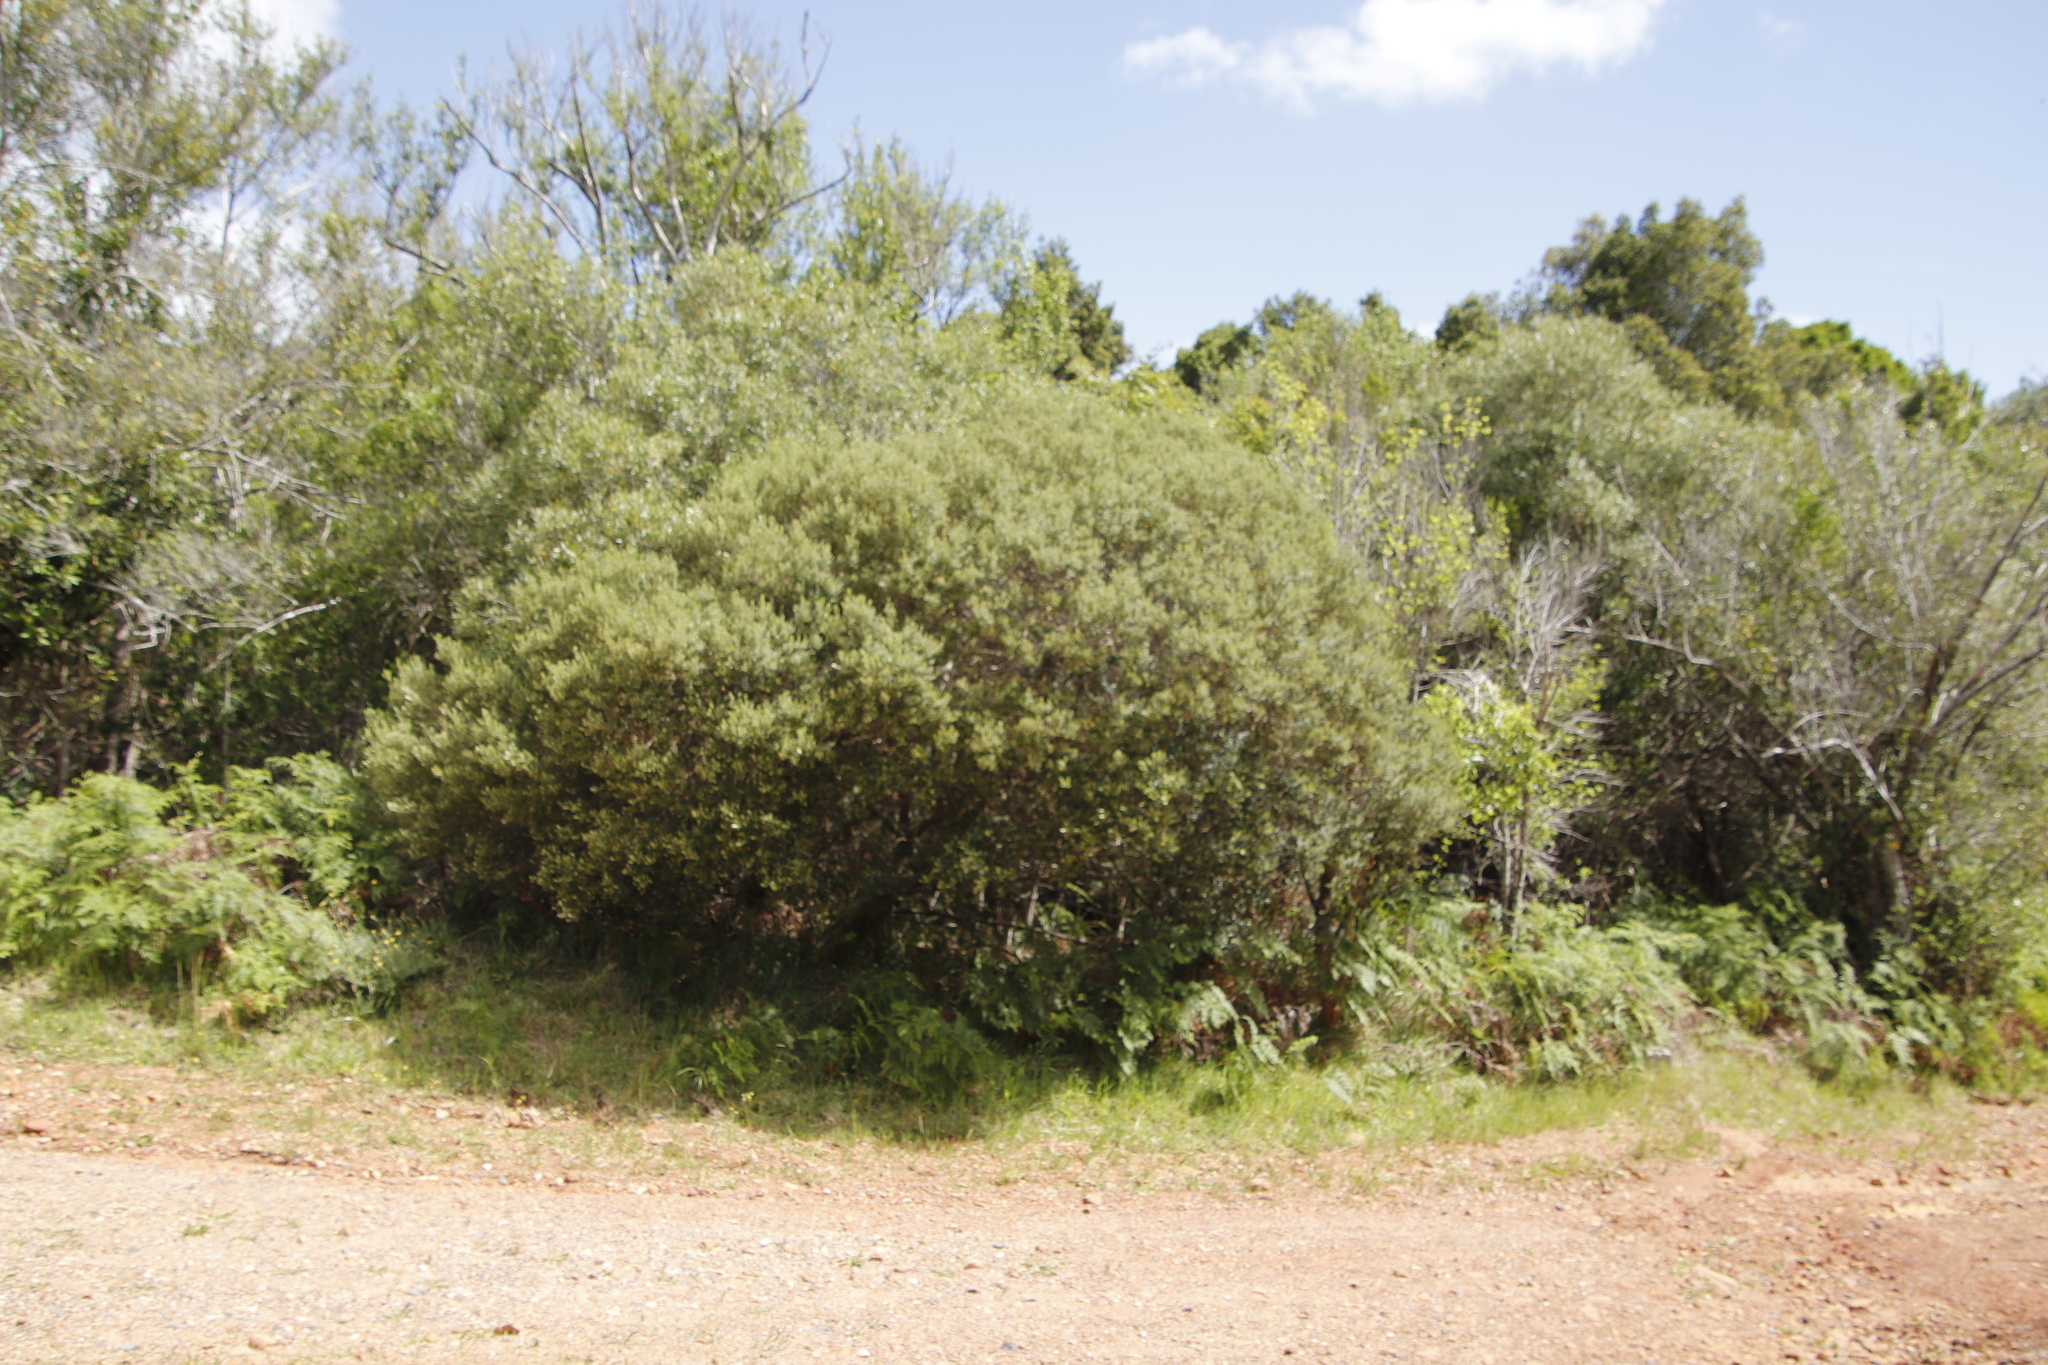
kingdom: Plantae
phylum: Tracheophyta
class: Magnoliopsida
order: Rosales
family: Rhamnaceae
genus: Phylica
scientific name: Phylica buxifolia
